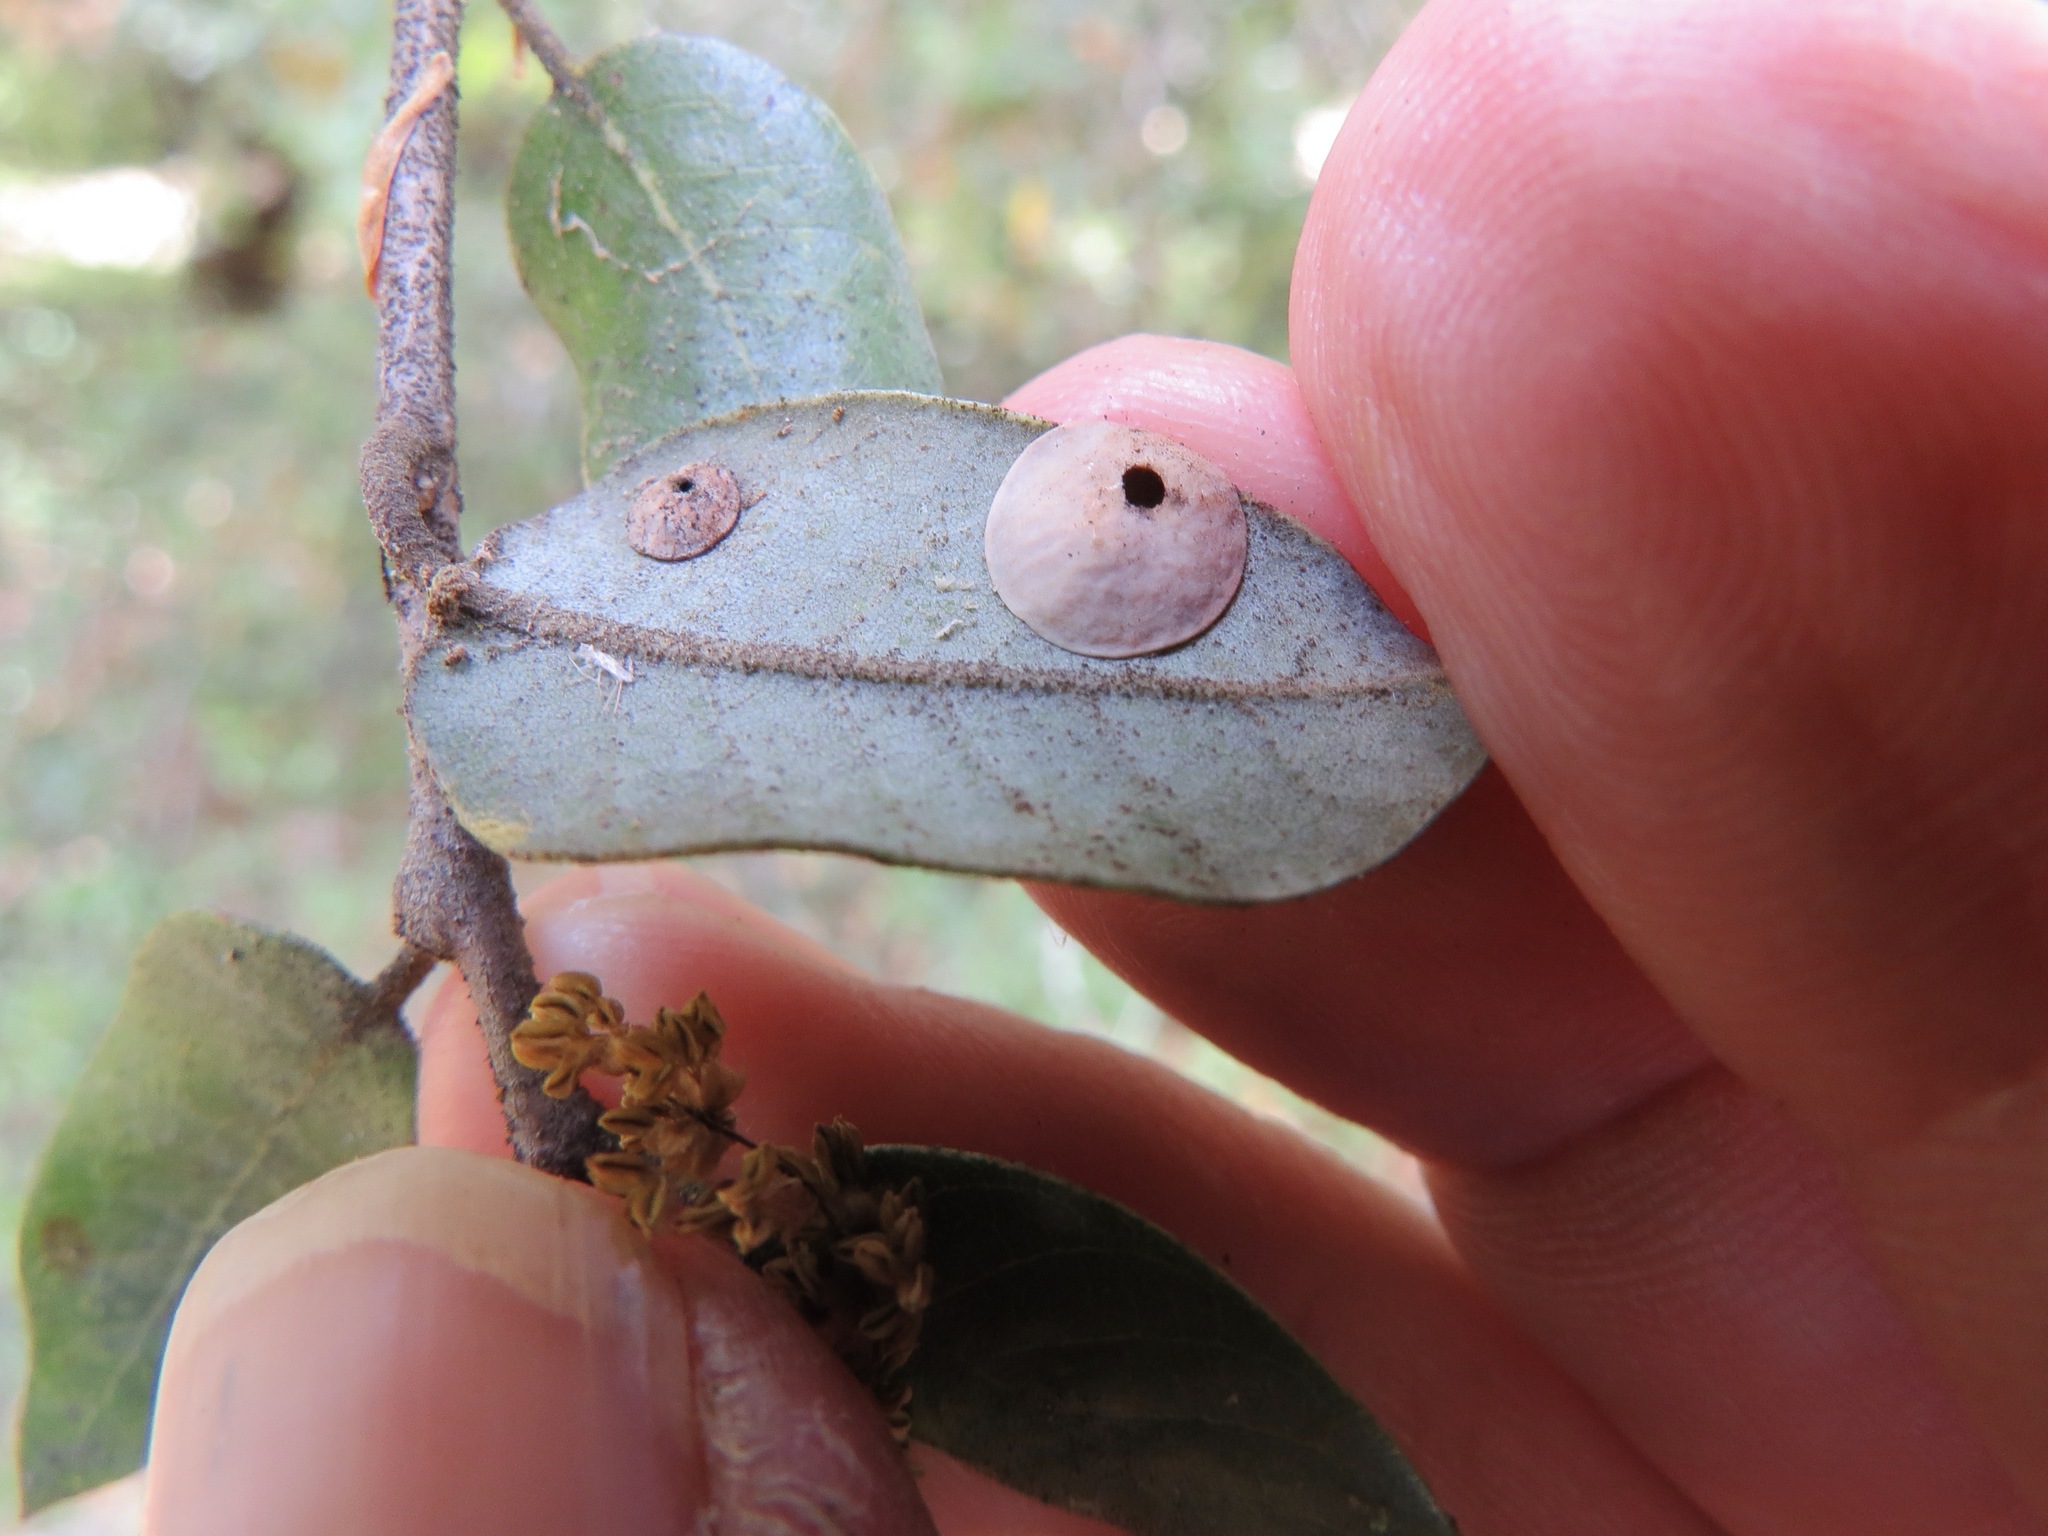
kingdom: Animalia
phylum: Arthropoda
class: Insecta
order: Hymenoptera
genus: Paracraspis
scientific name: Paracraspis
